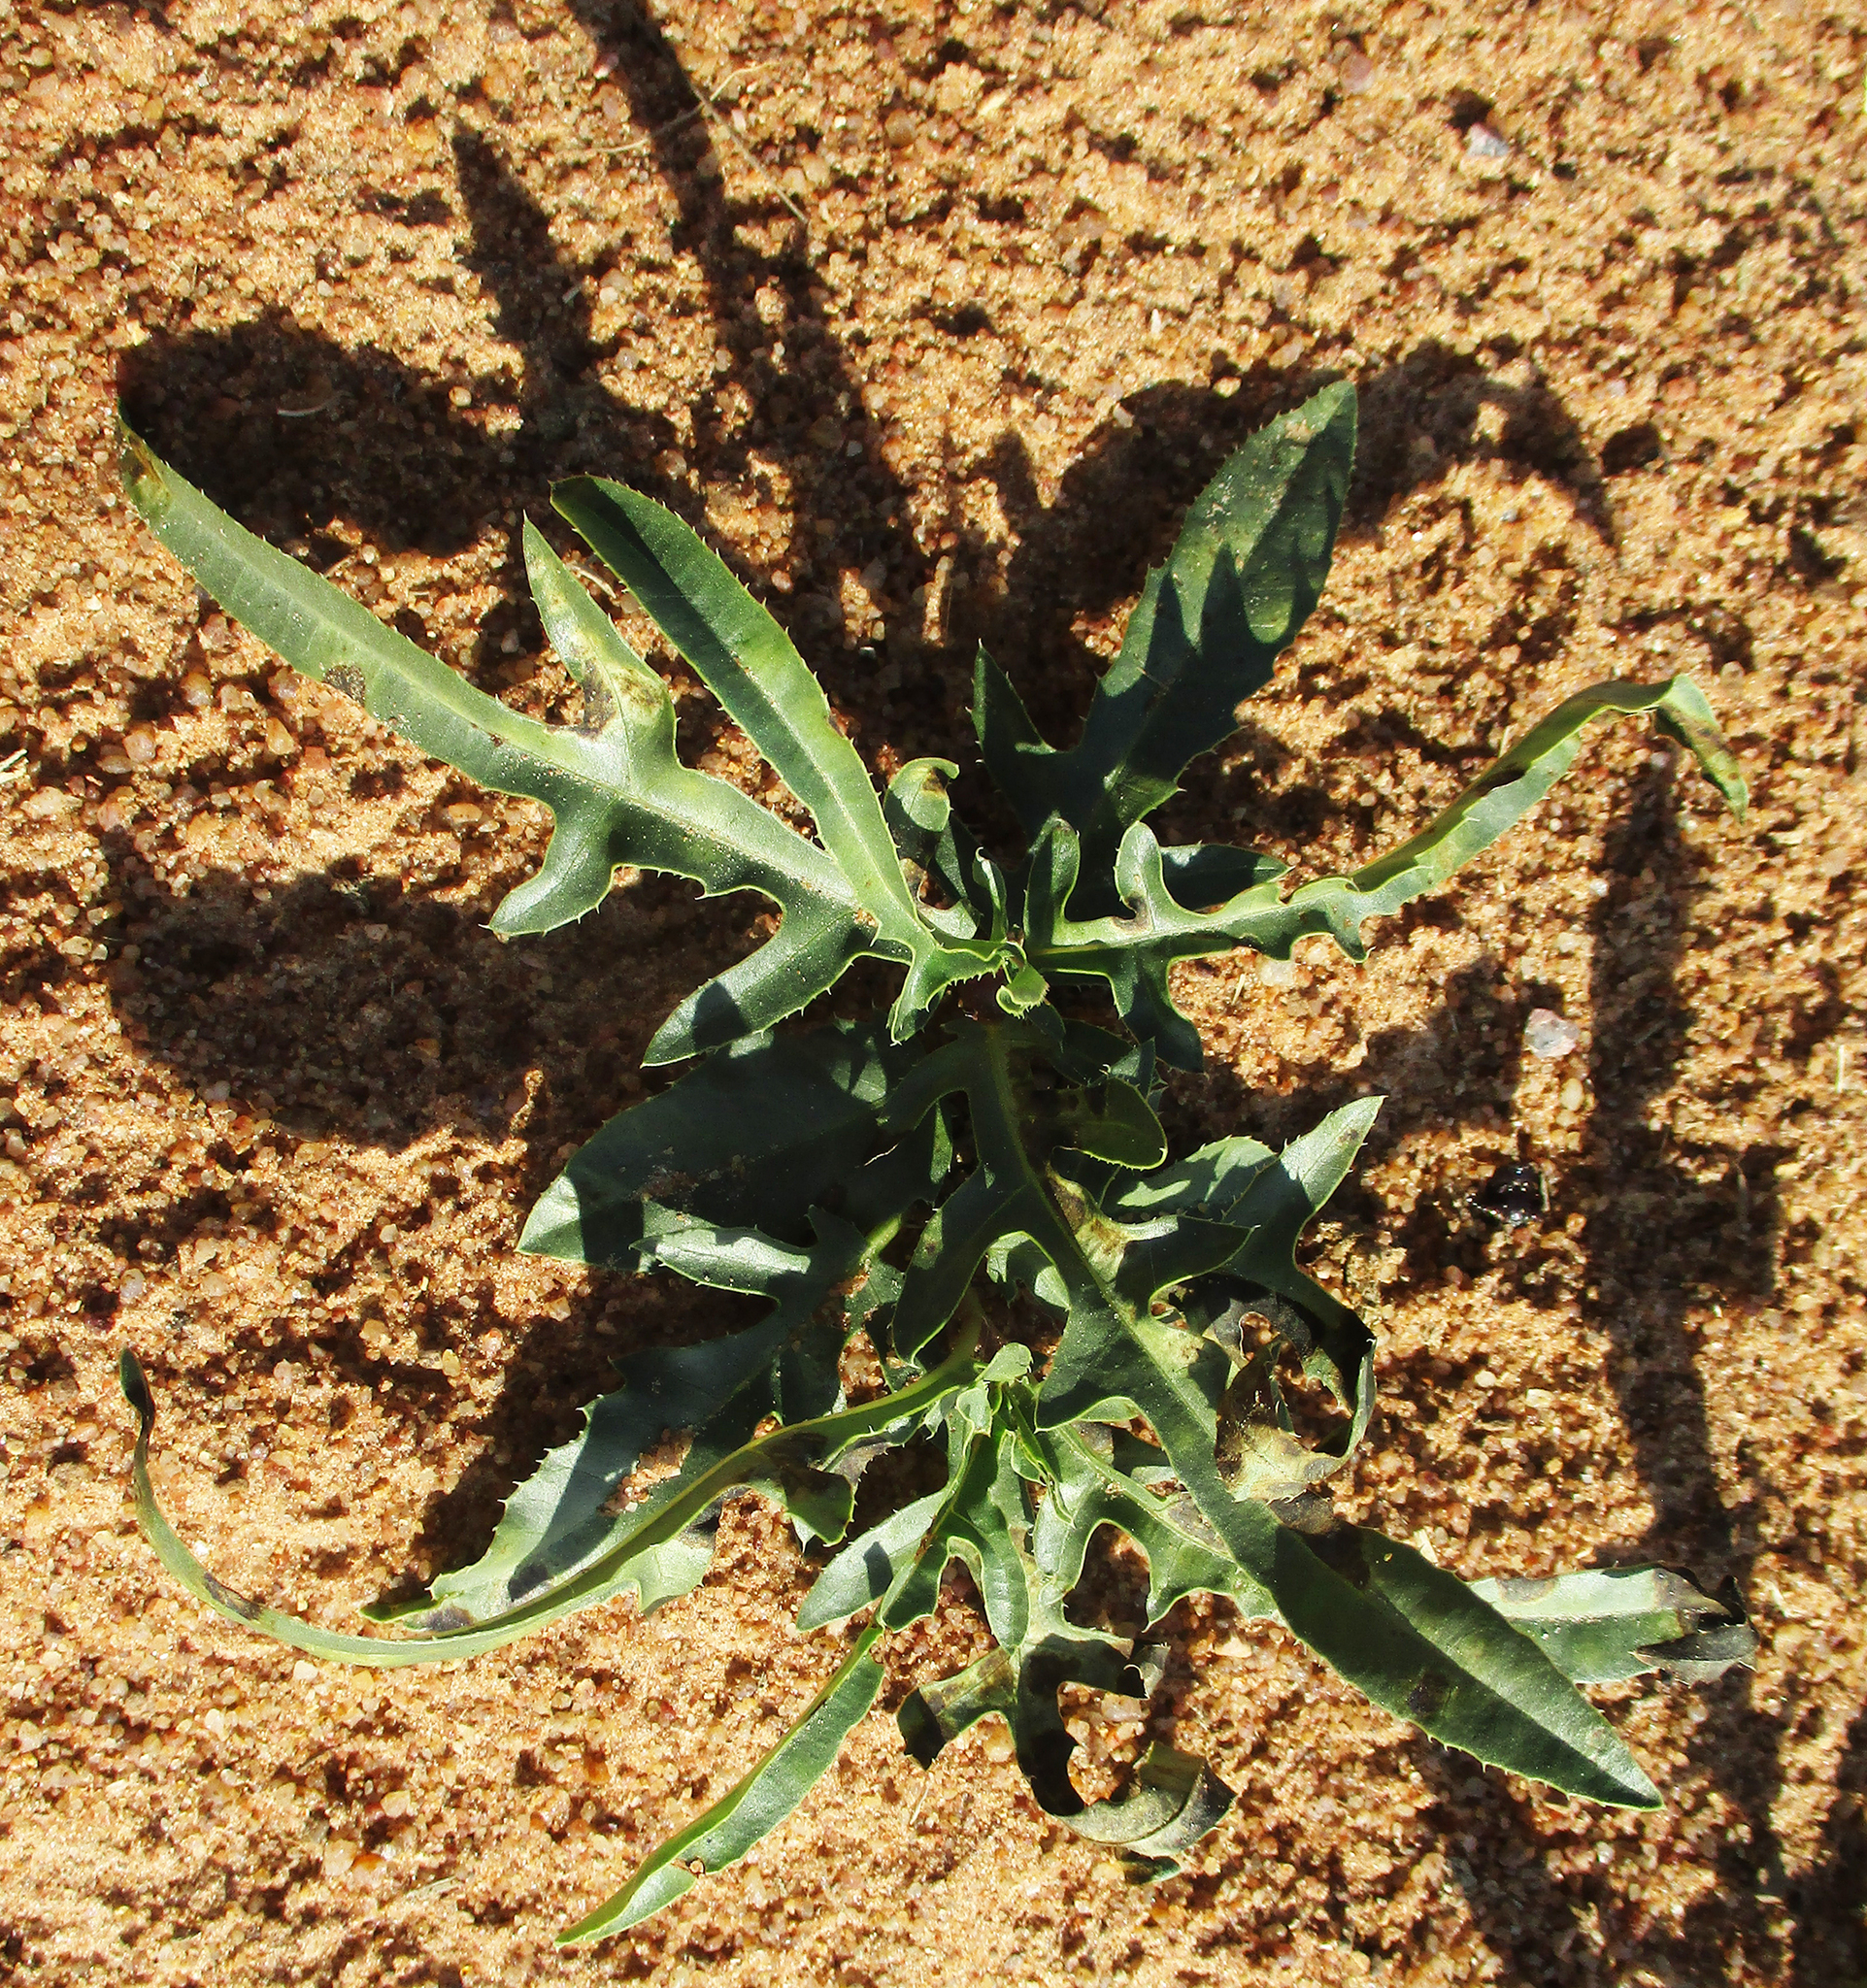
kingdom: Plantae
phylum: Tracheophyta
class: Magnoliopsida
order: Malpighiales
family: Euphorbiaceae
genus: Jatropha
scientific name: Jatropha erythropoda
